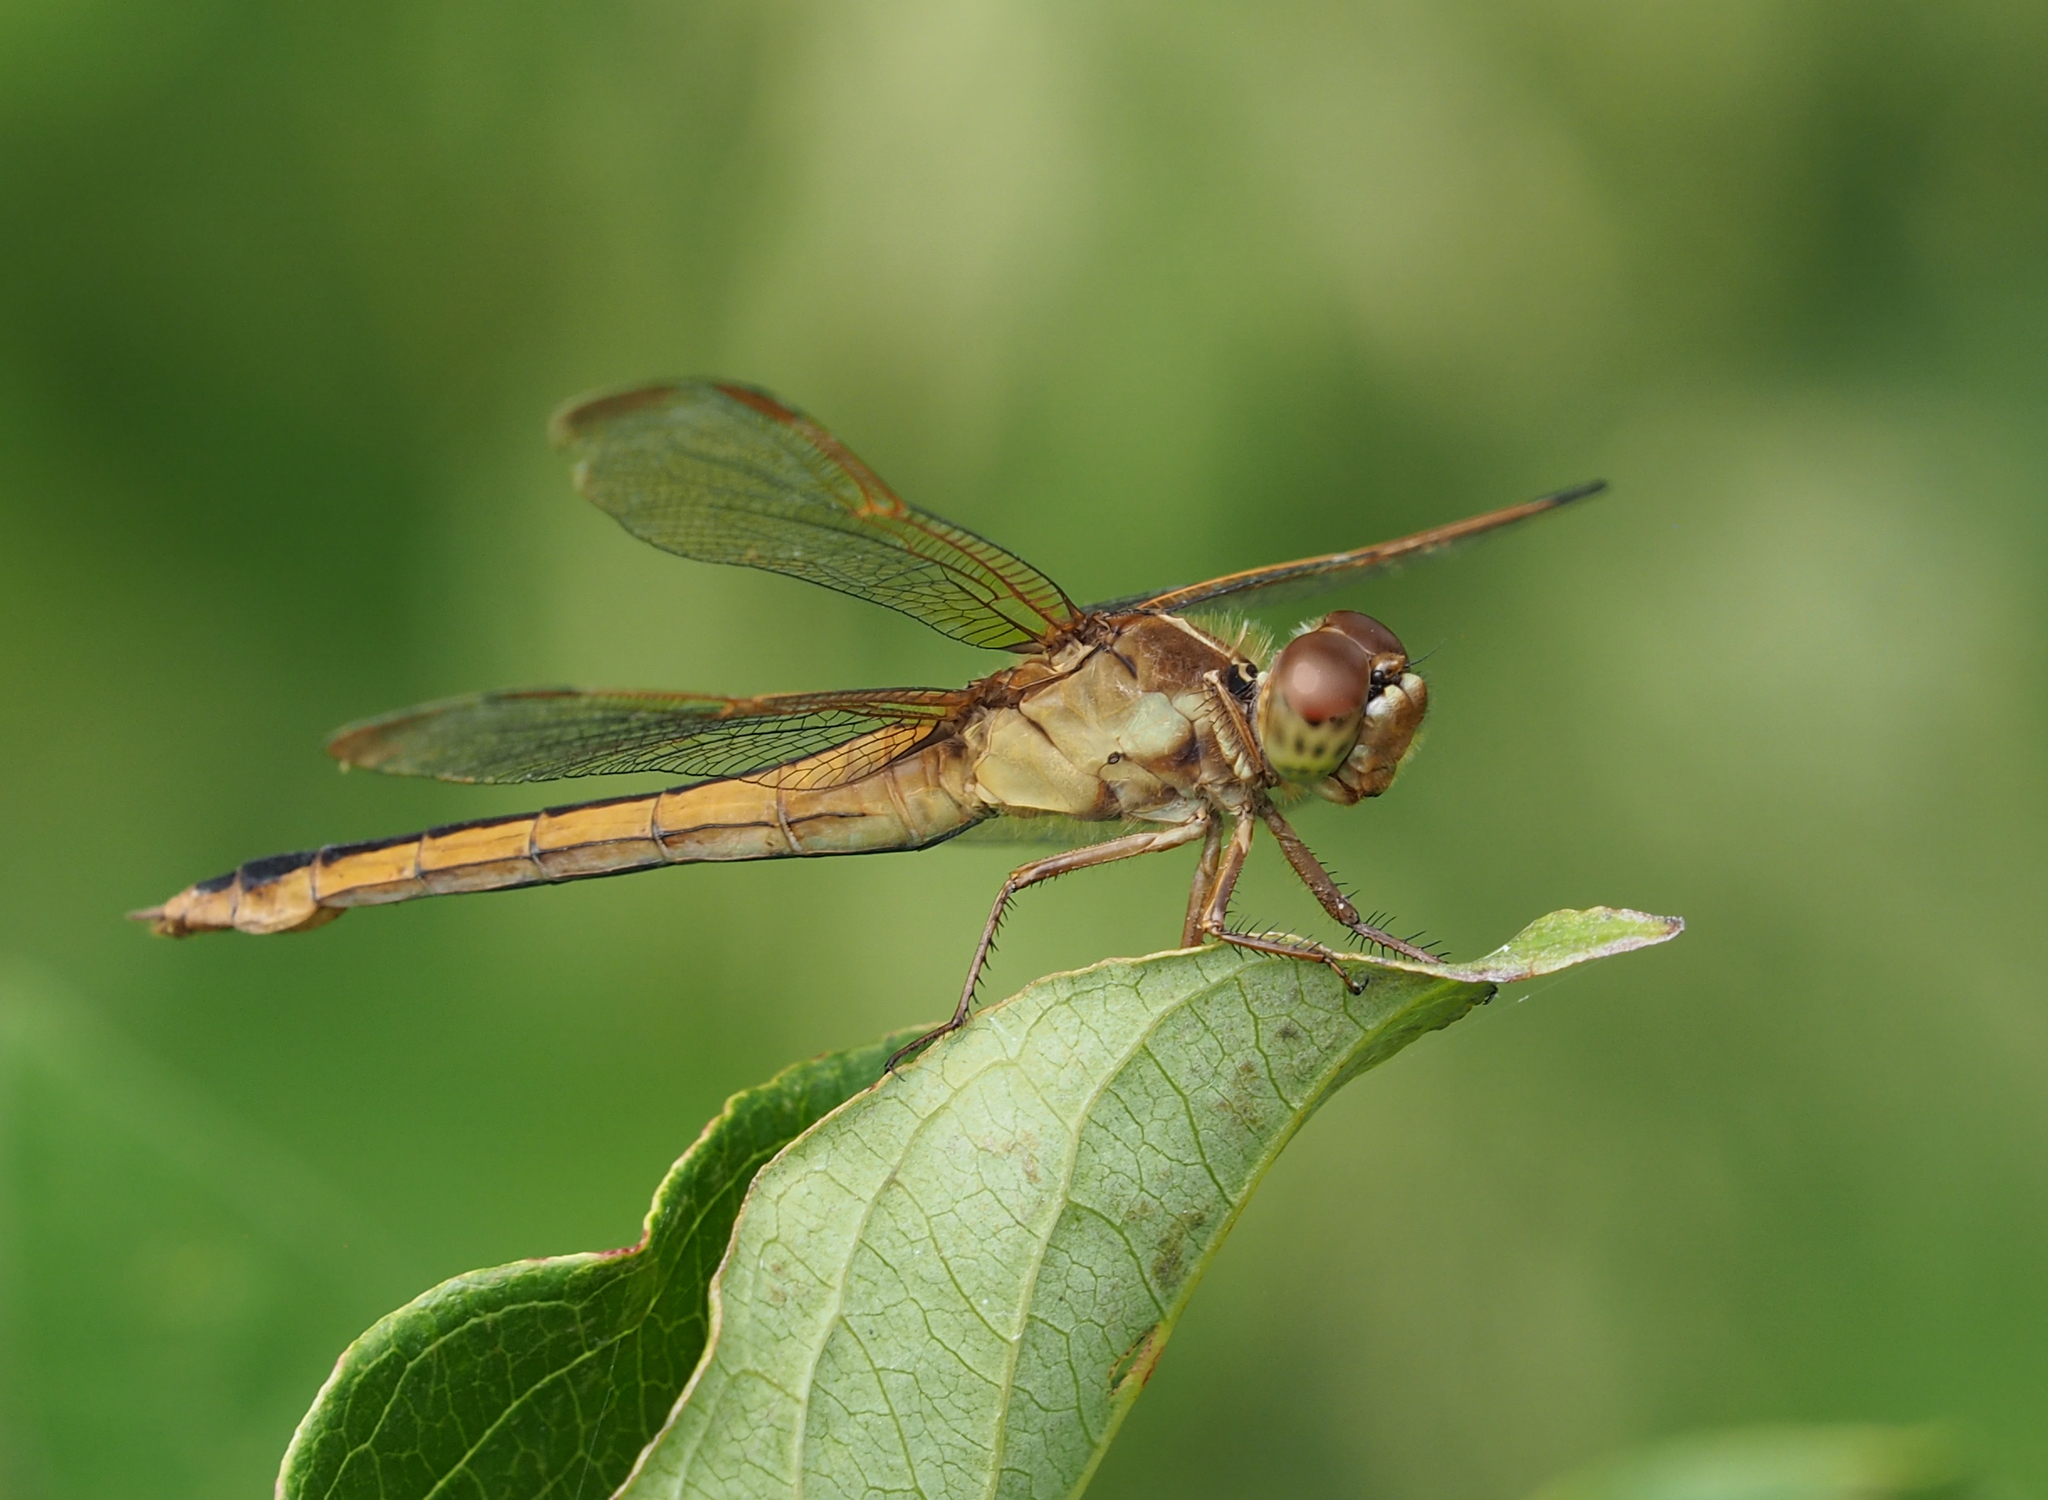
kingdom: Animalia
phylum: Arthropoda
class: Insecta
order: Odonata
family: Libellulidae
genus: Libellula
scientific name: Libellula needhami
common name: Needham's skimmer
